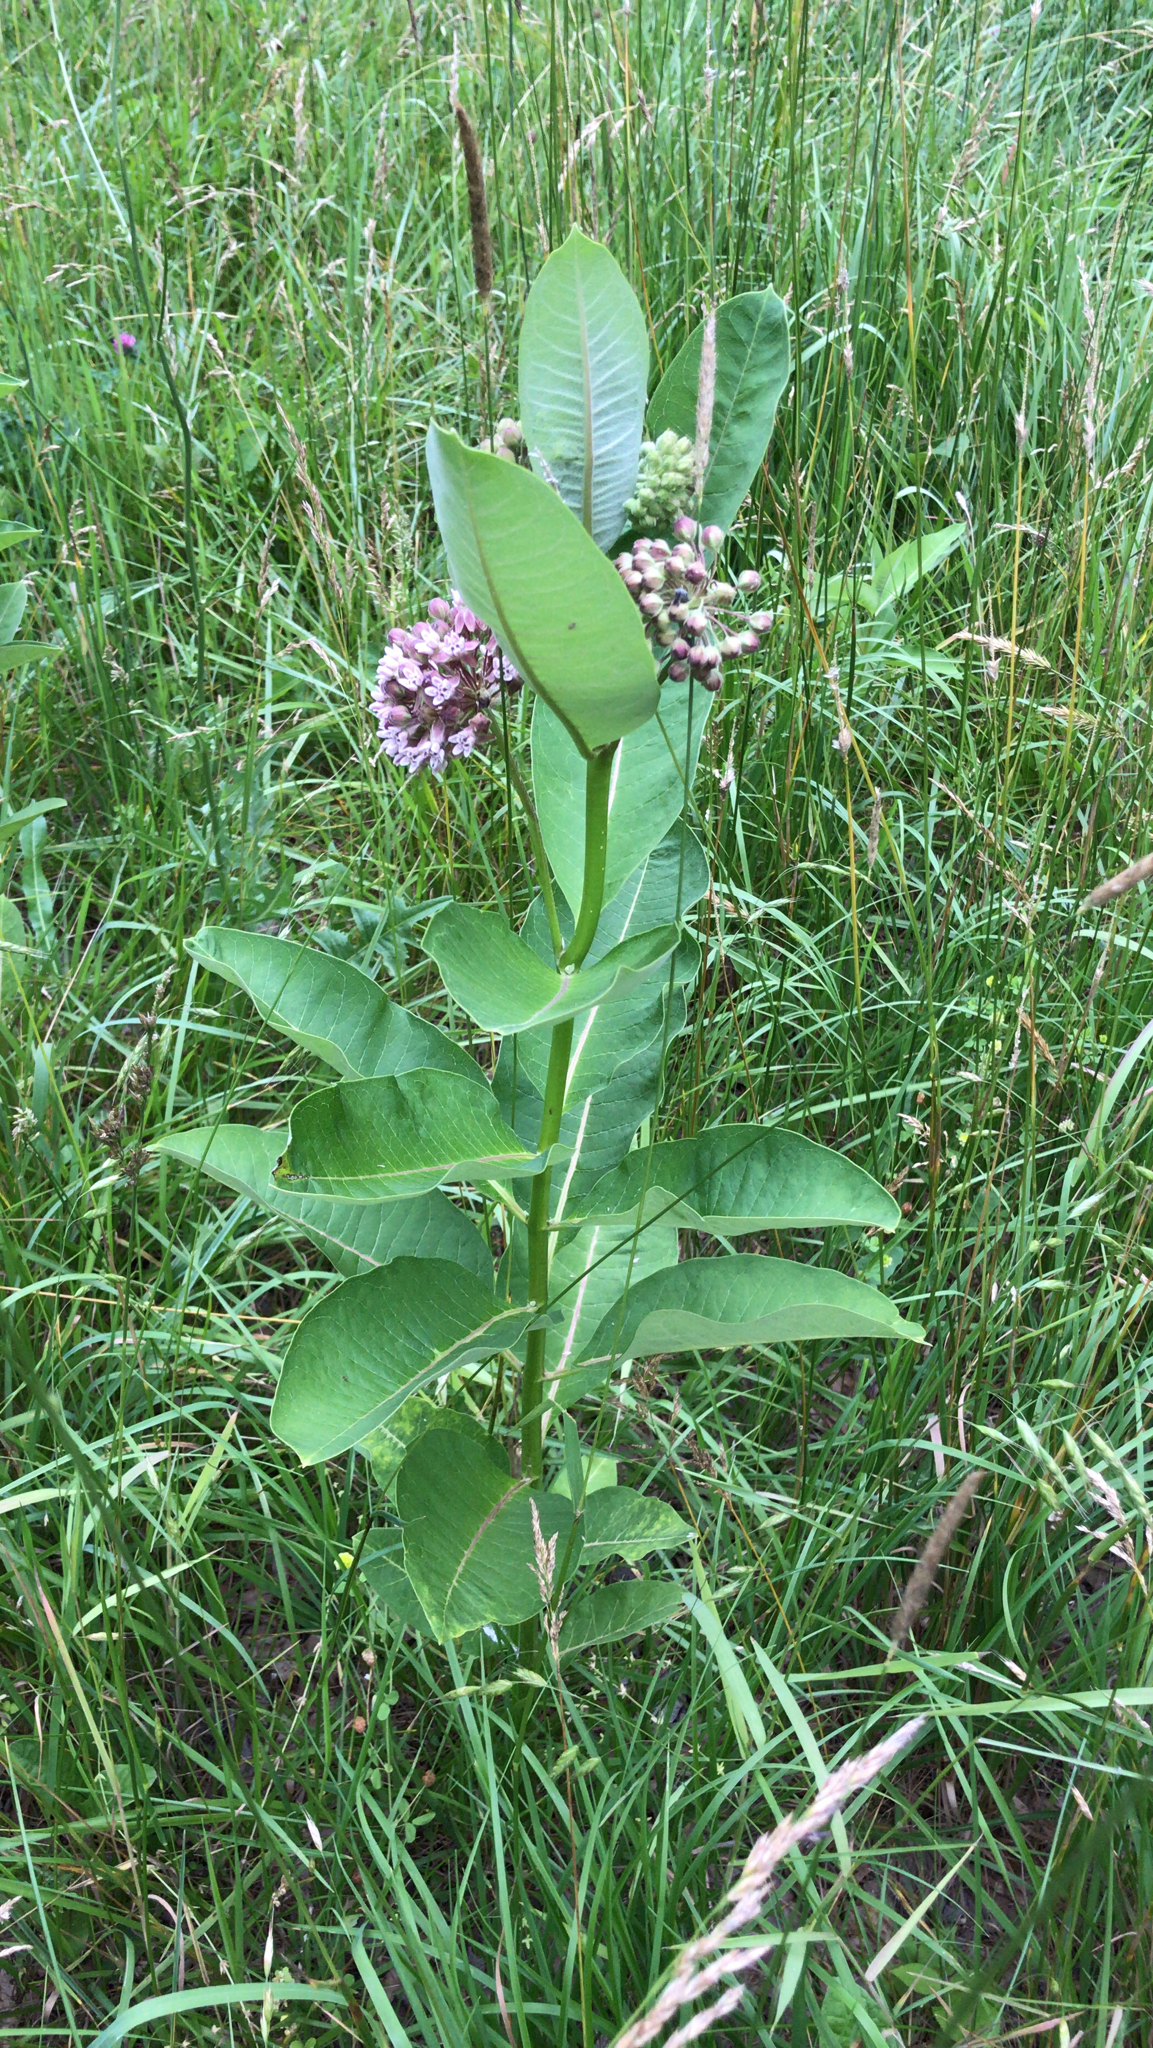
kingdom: Plantae
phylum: Tracheophyta
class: Magnoliopsida
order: Gentianales
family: Apocynaceae
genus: Asclepias
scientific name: Asclepias syriaca
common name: Common milkweed
